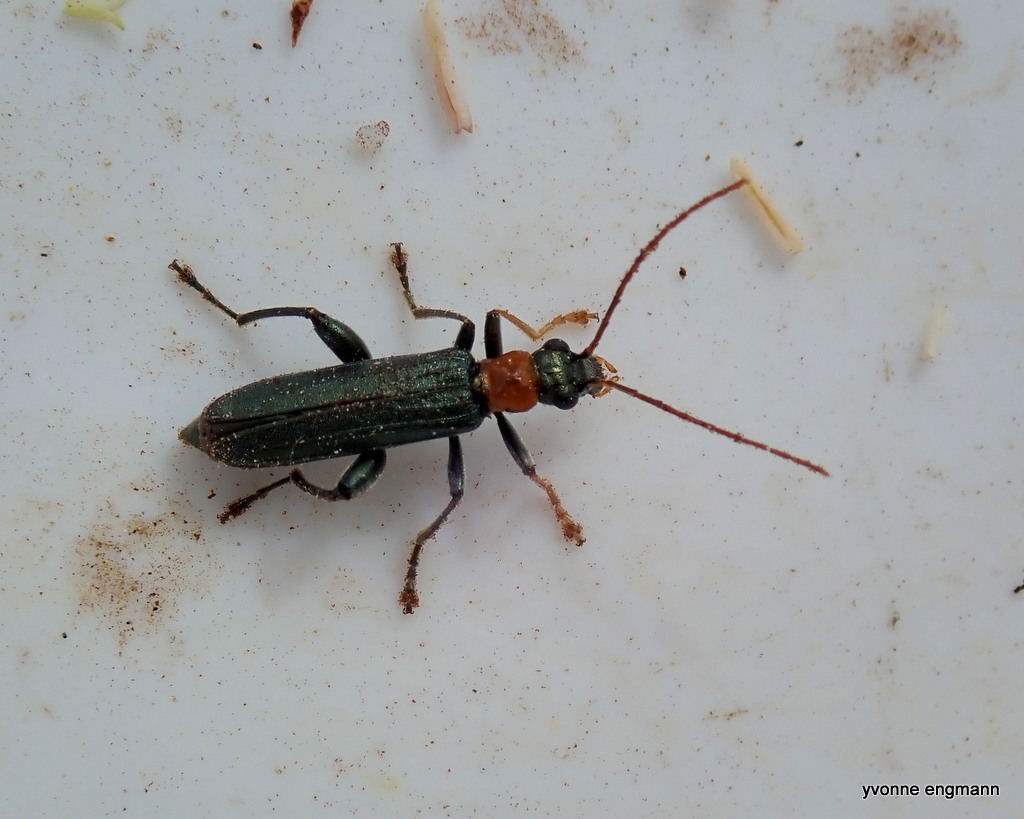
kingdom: Animalia
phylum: Arthropoda
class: Insecta
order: Coleoptera
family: Oedemeridae
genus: Oedemera
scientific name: Oedemera croceicollis
